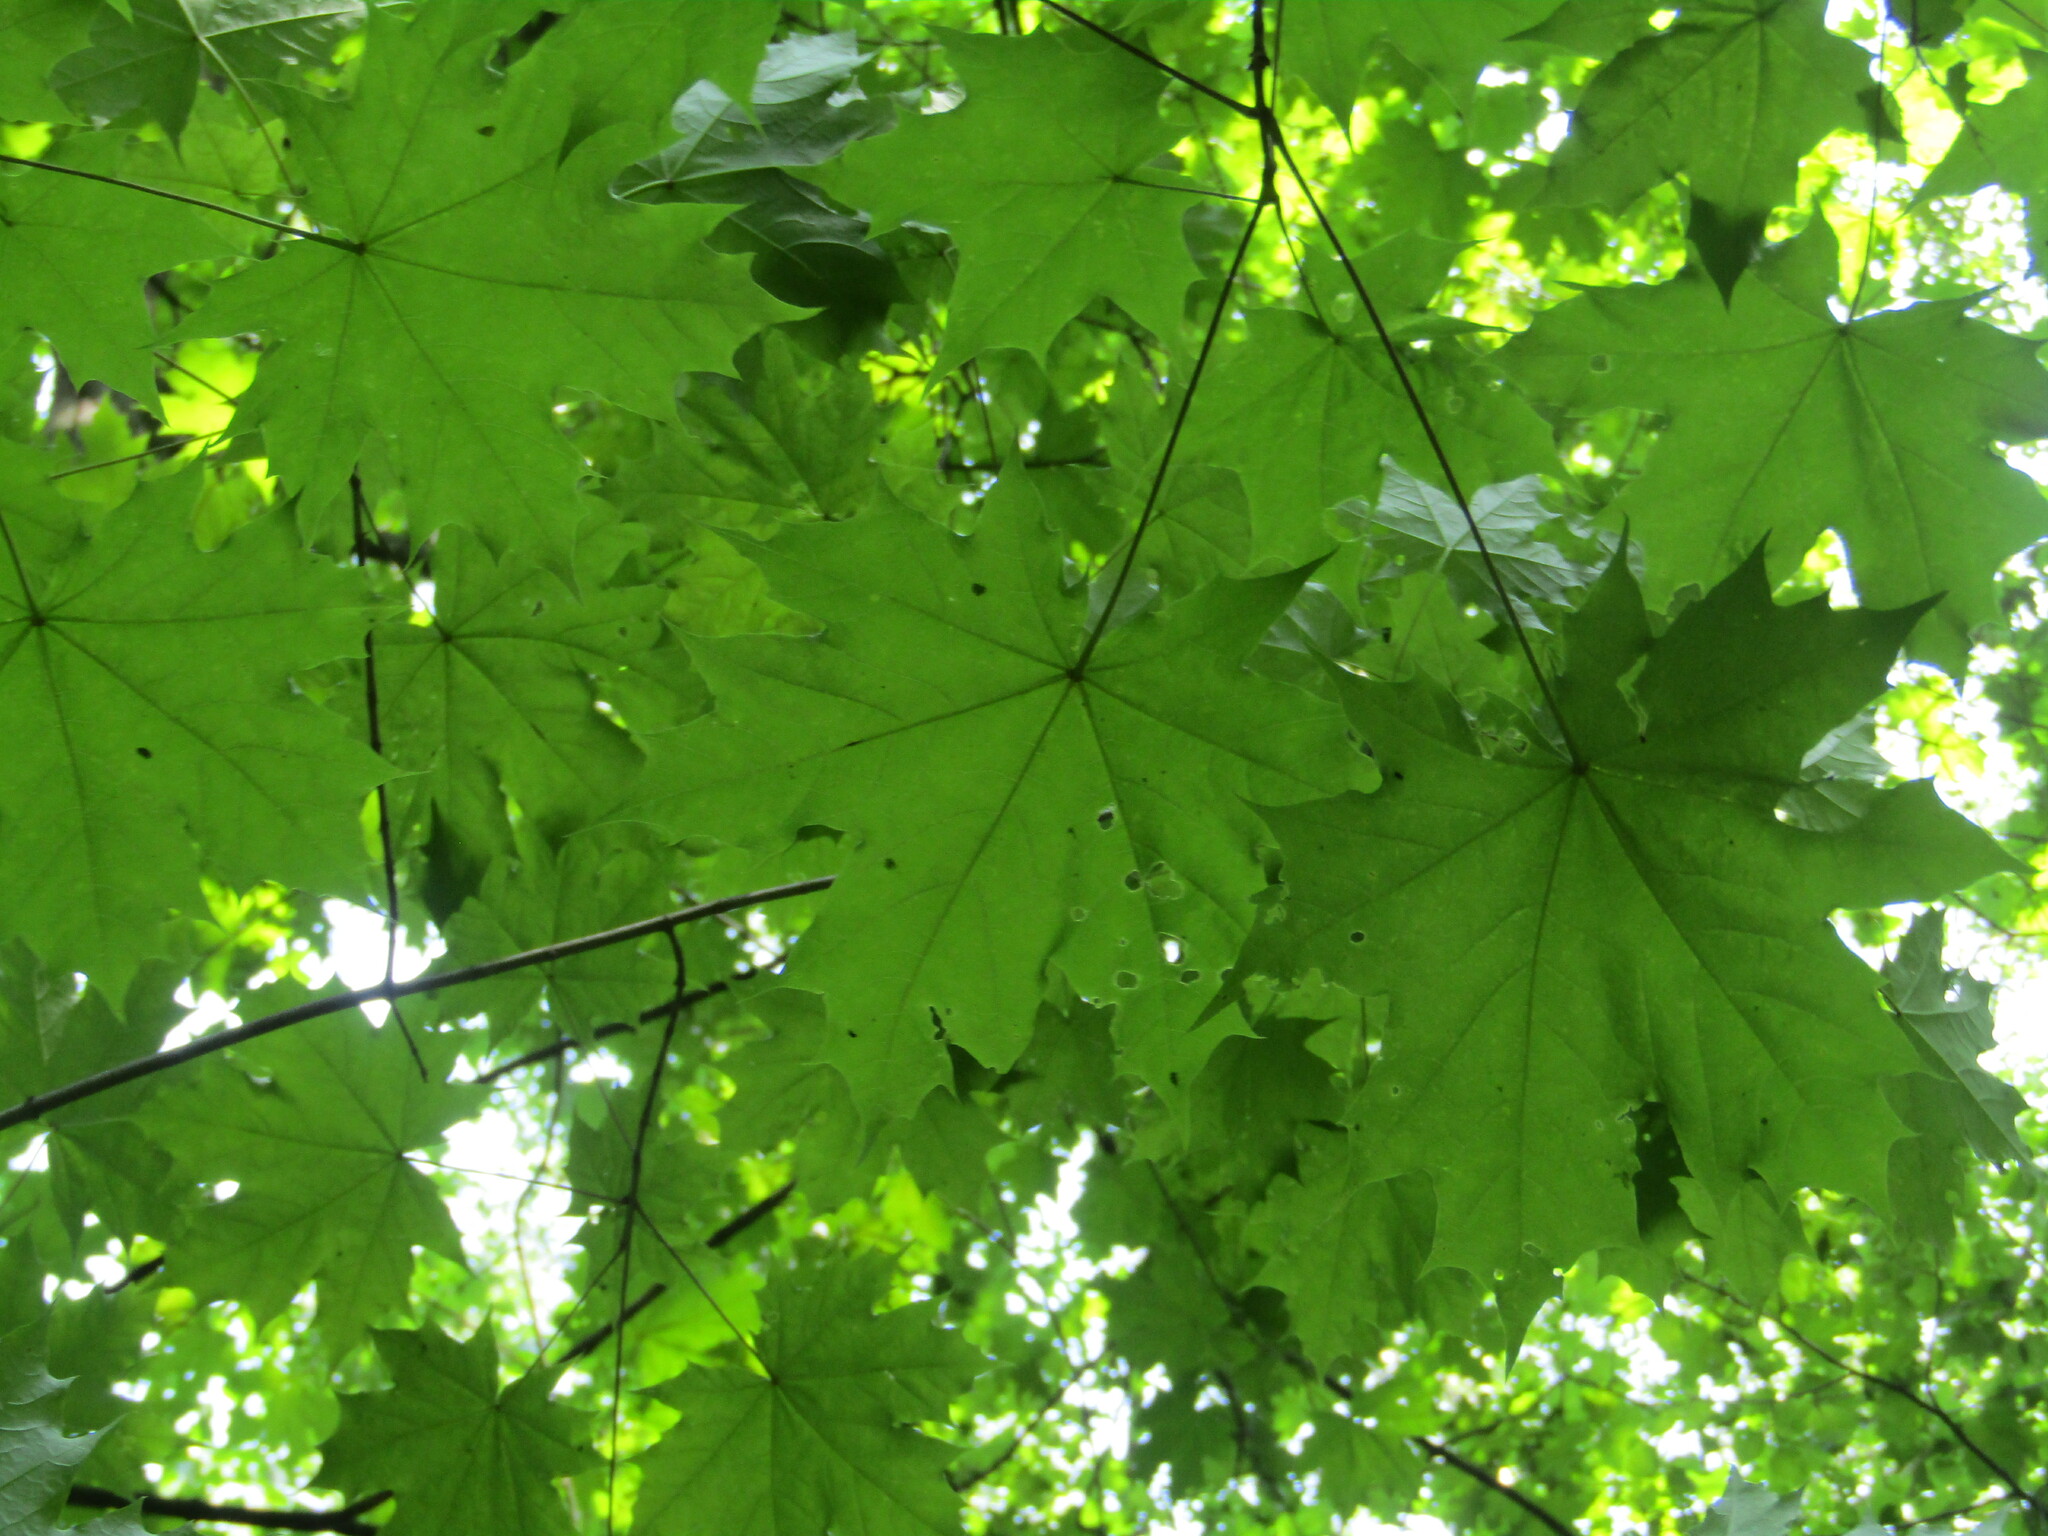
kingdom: Plantae
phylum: Tracheophyta
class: Magnoliopsida
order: Sapindales
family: Sapindaceae
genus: Acer
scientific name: Acer platanoides
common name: Norway maple
